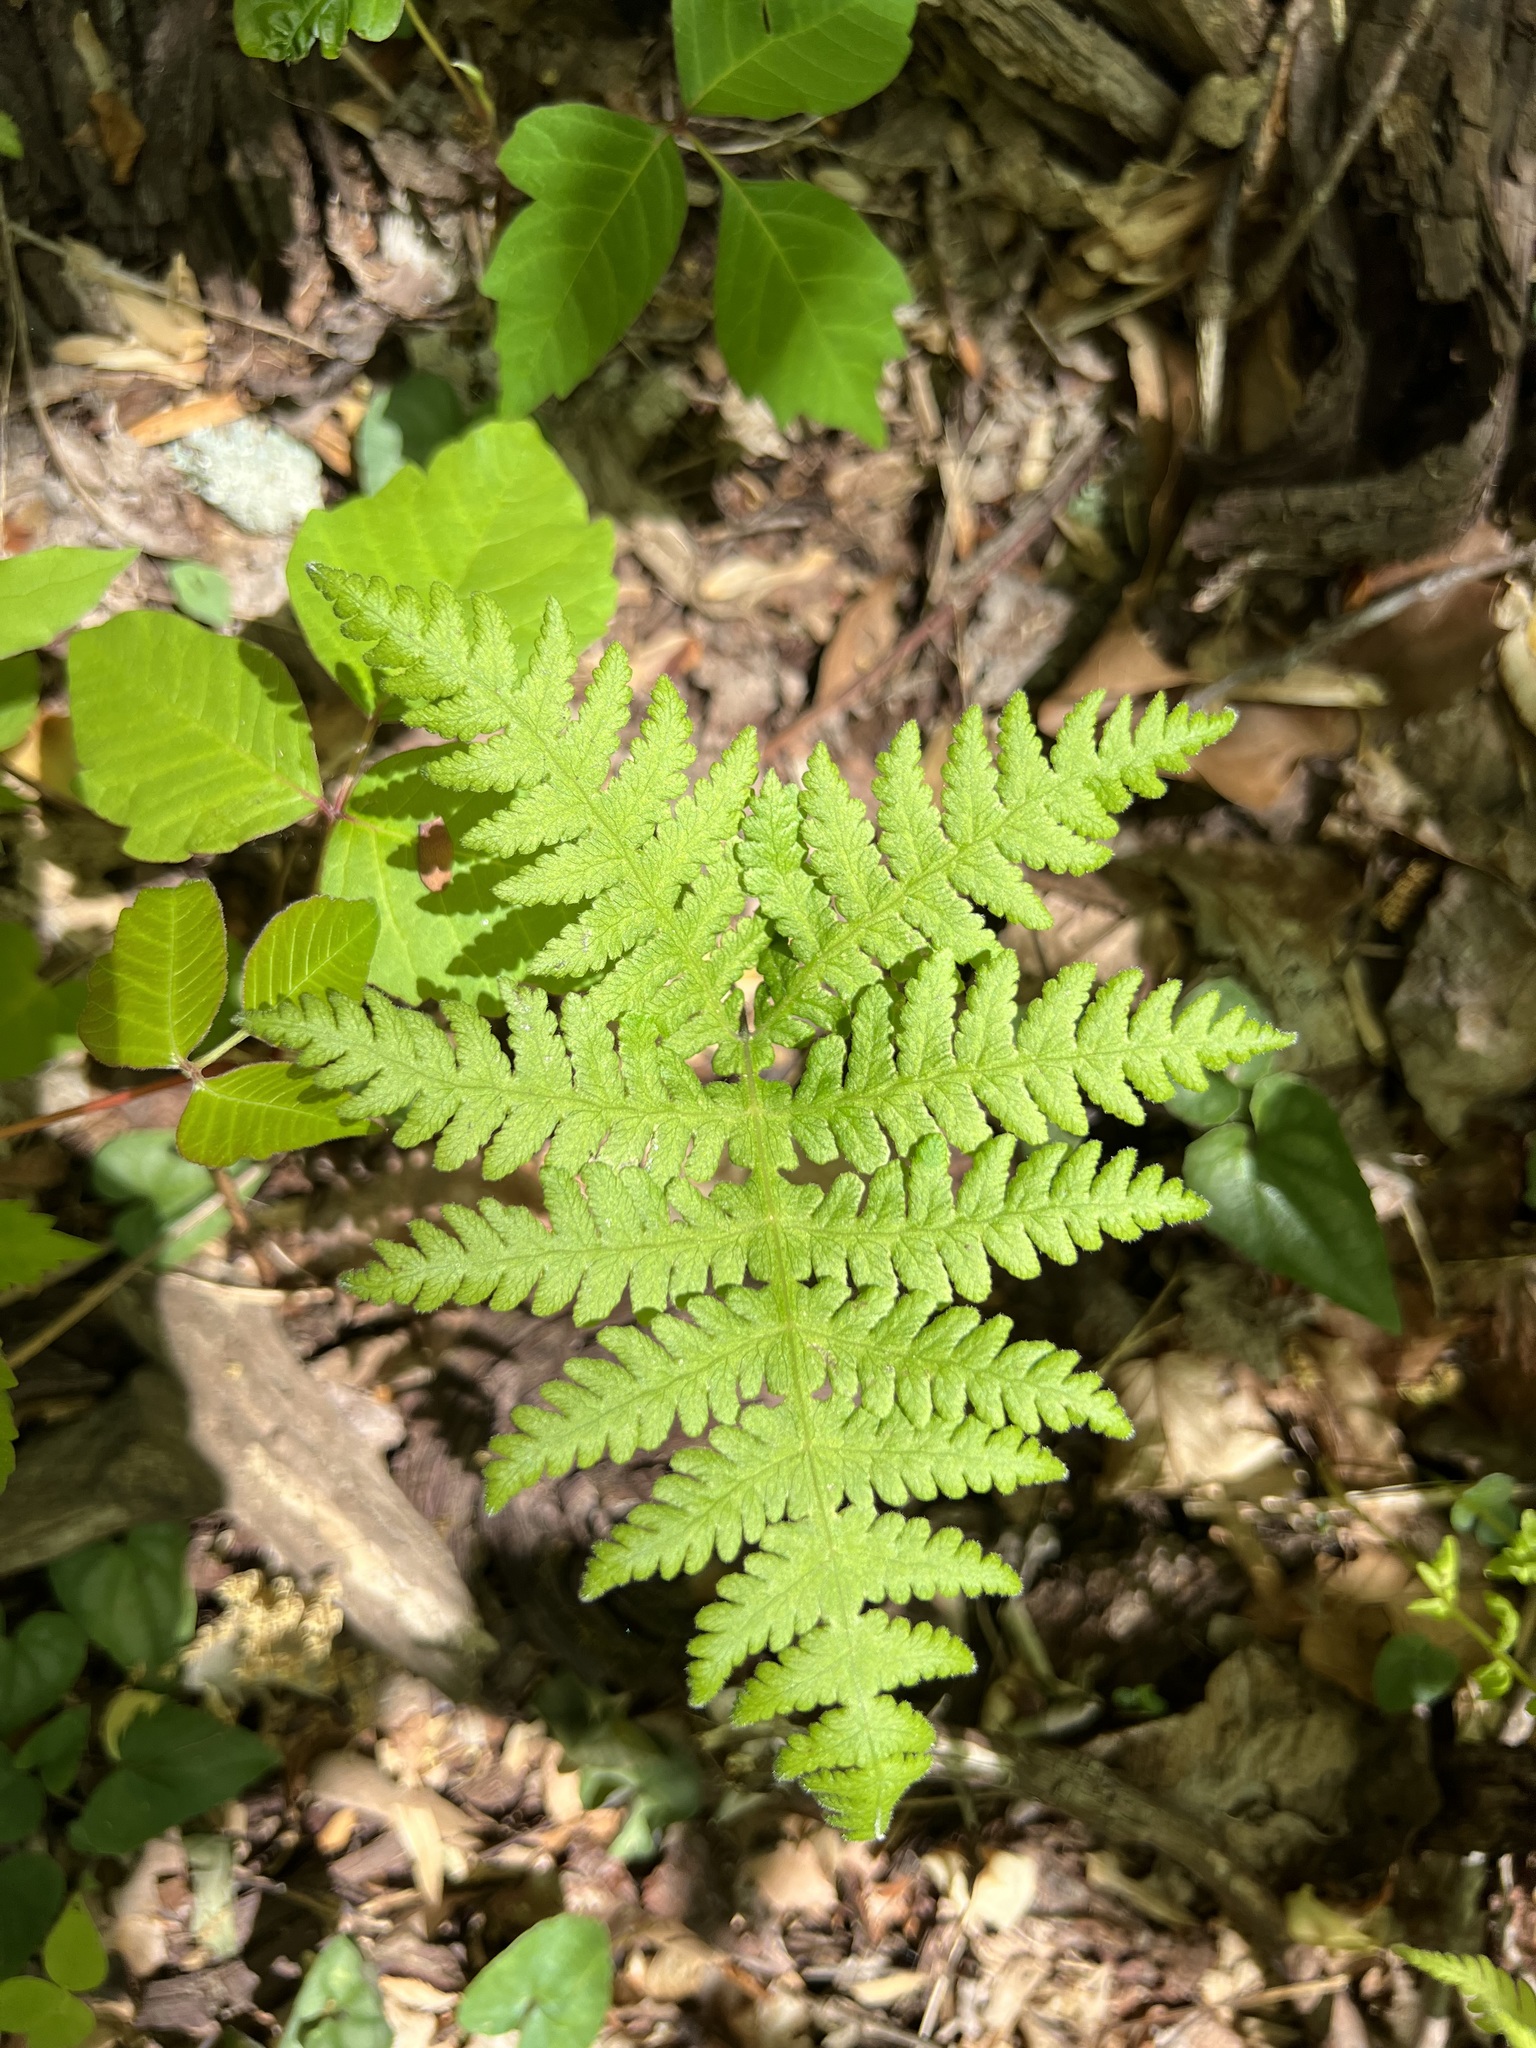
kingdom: Plantae
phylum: Tracheophyta
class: Polypodiopsida
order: Polypodiales
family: Thelypteridaceae
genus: Phegopteris
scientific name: Phegopteris hexagonoptera
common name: Broad beech fern
